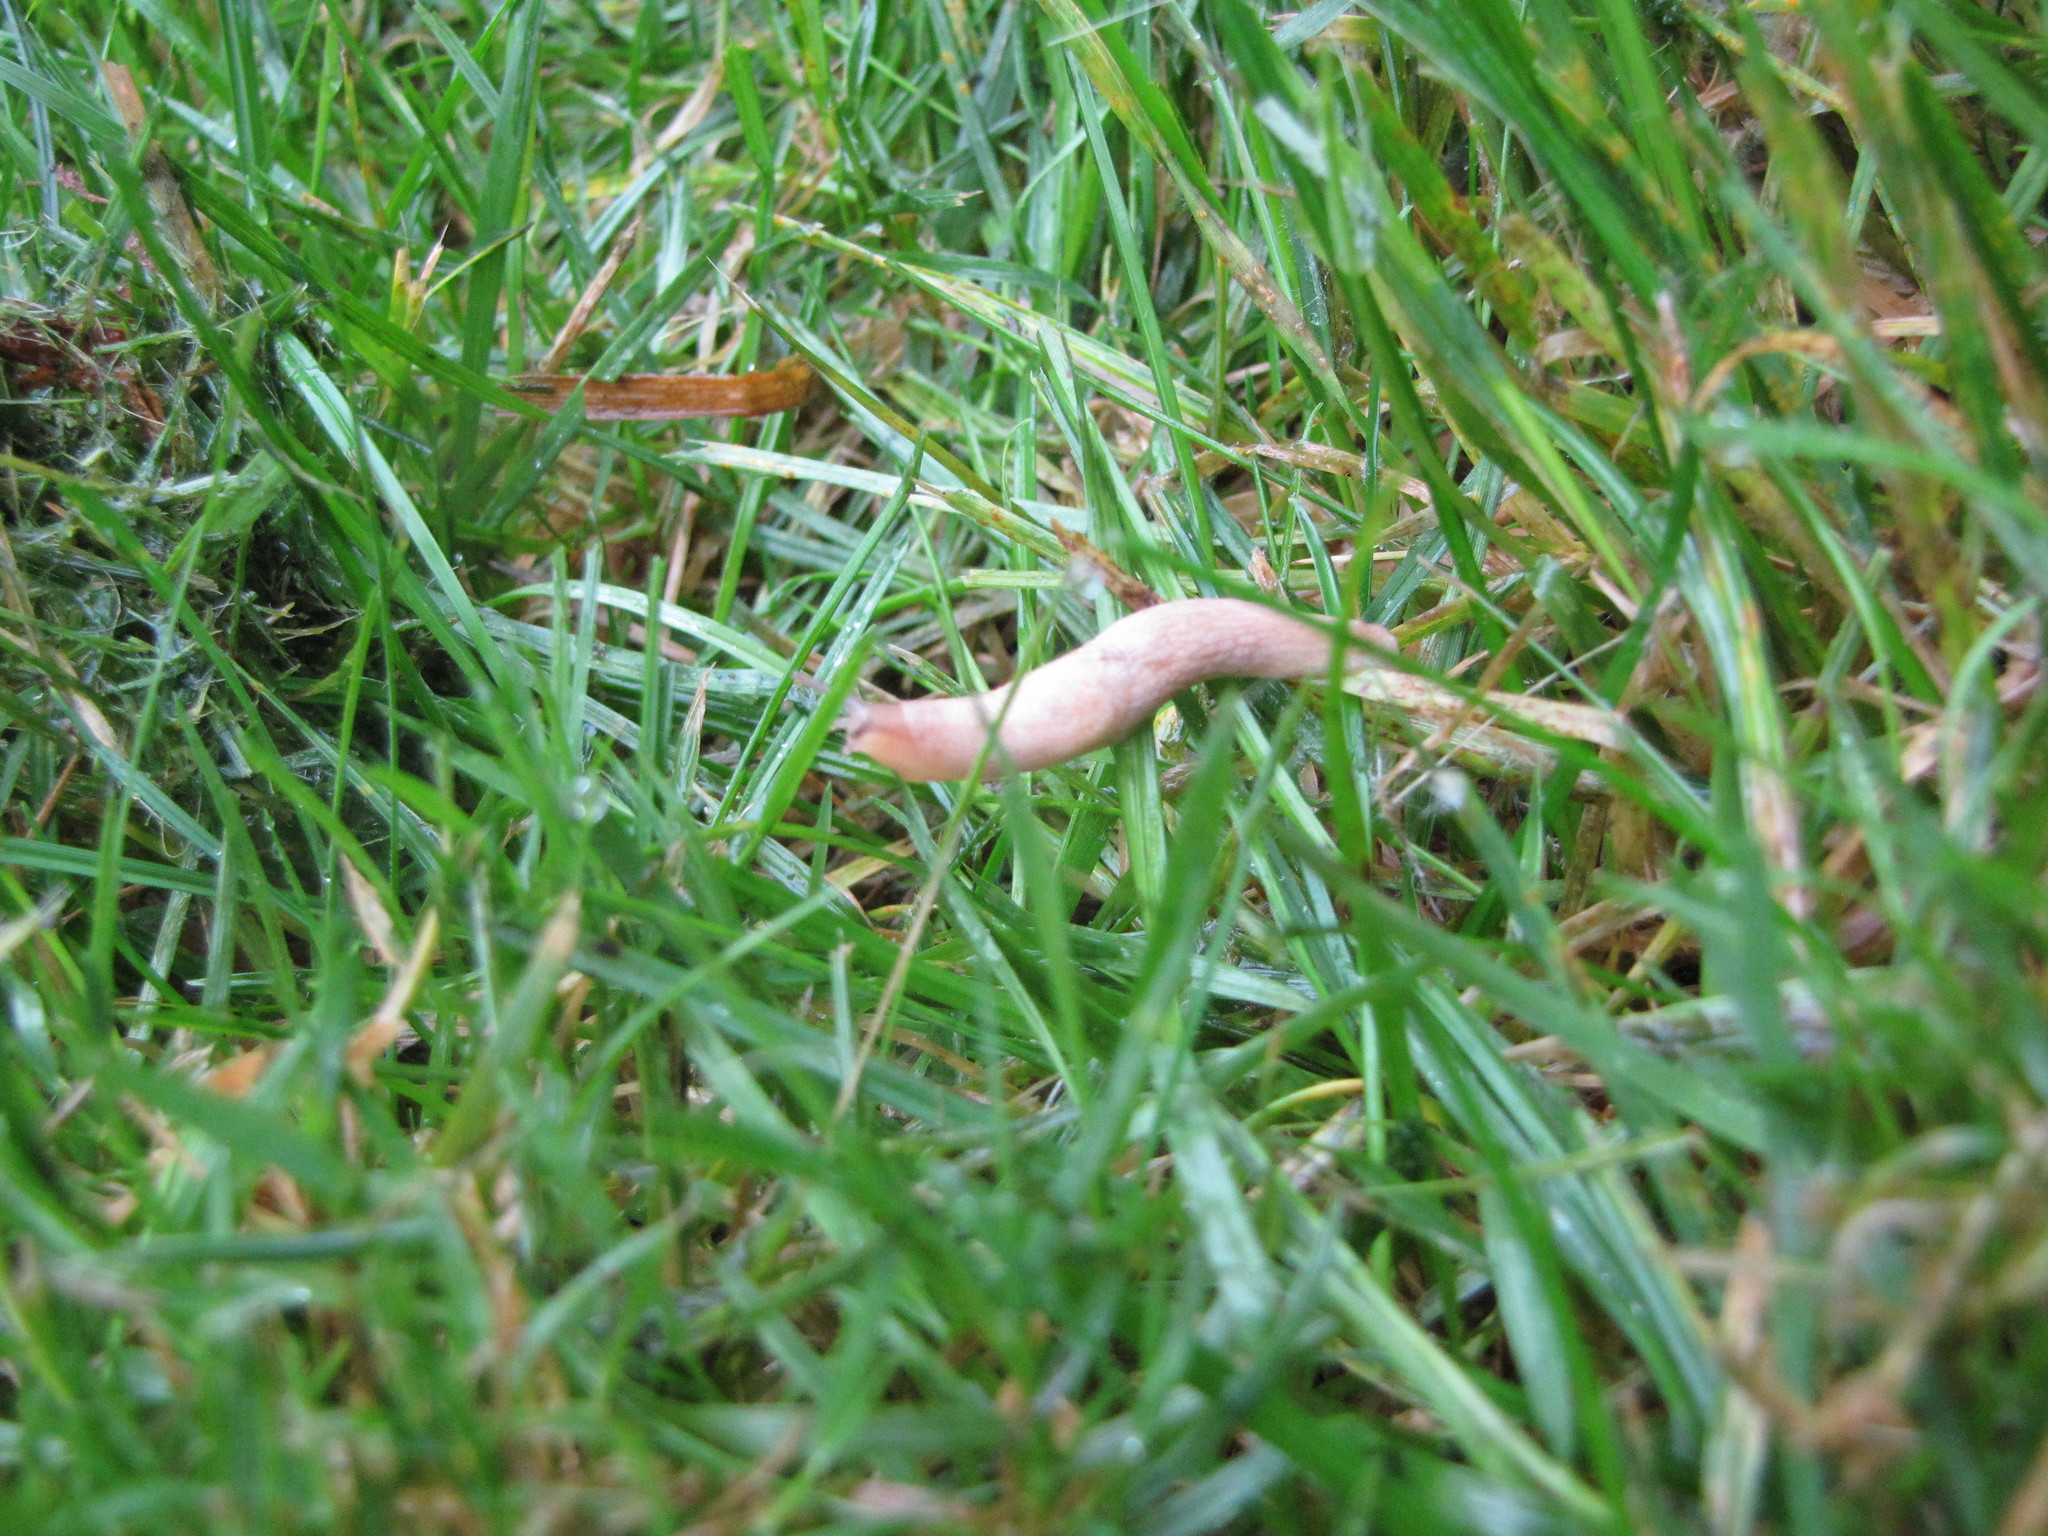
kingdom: Animalia
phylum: Mollusca
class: Gastropoda
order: Stylommatophora
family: Agriolimacidae
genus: Deroceras
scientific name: Deroceras reticulatum
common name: Gray field slug
